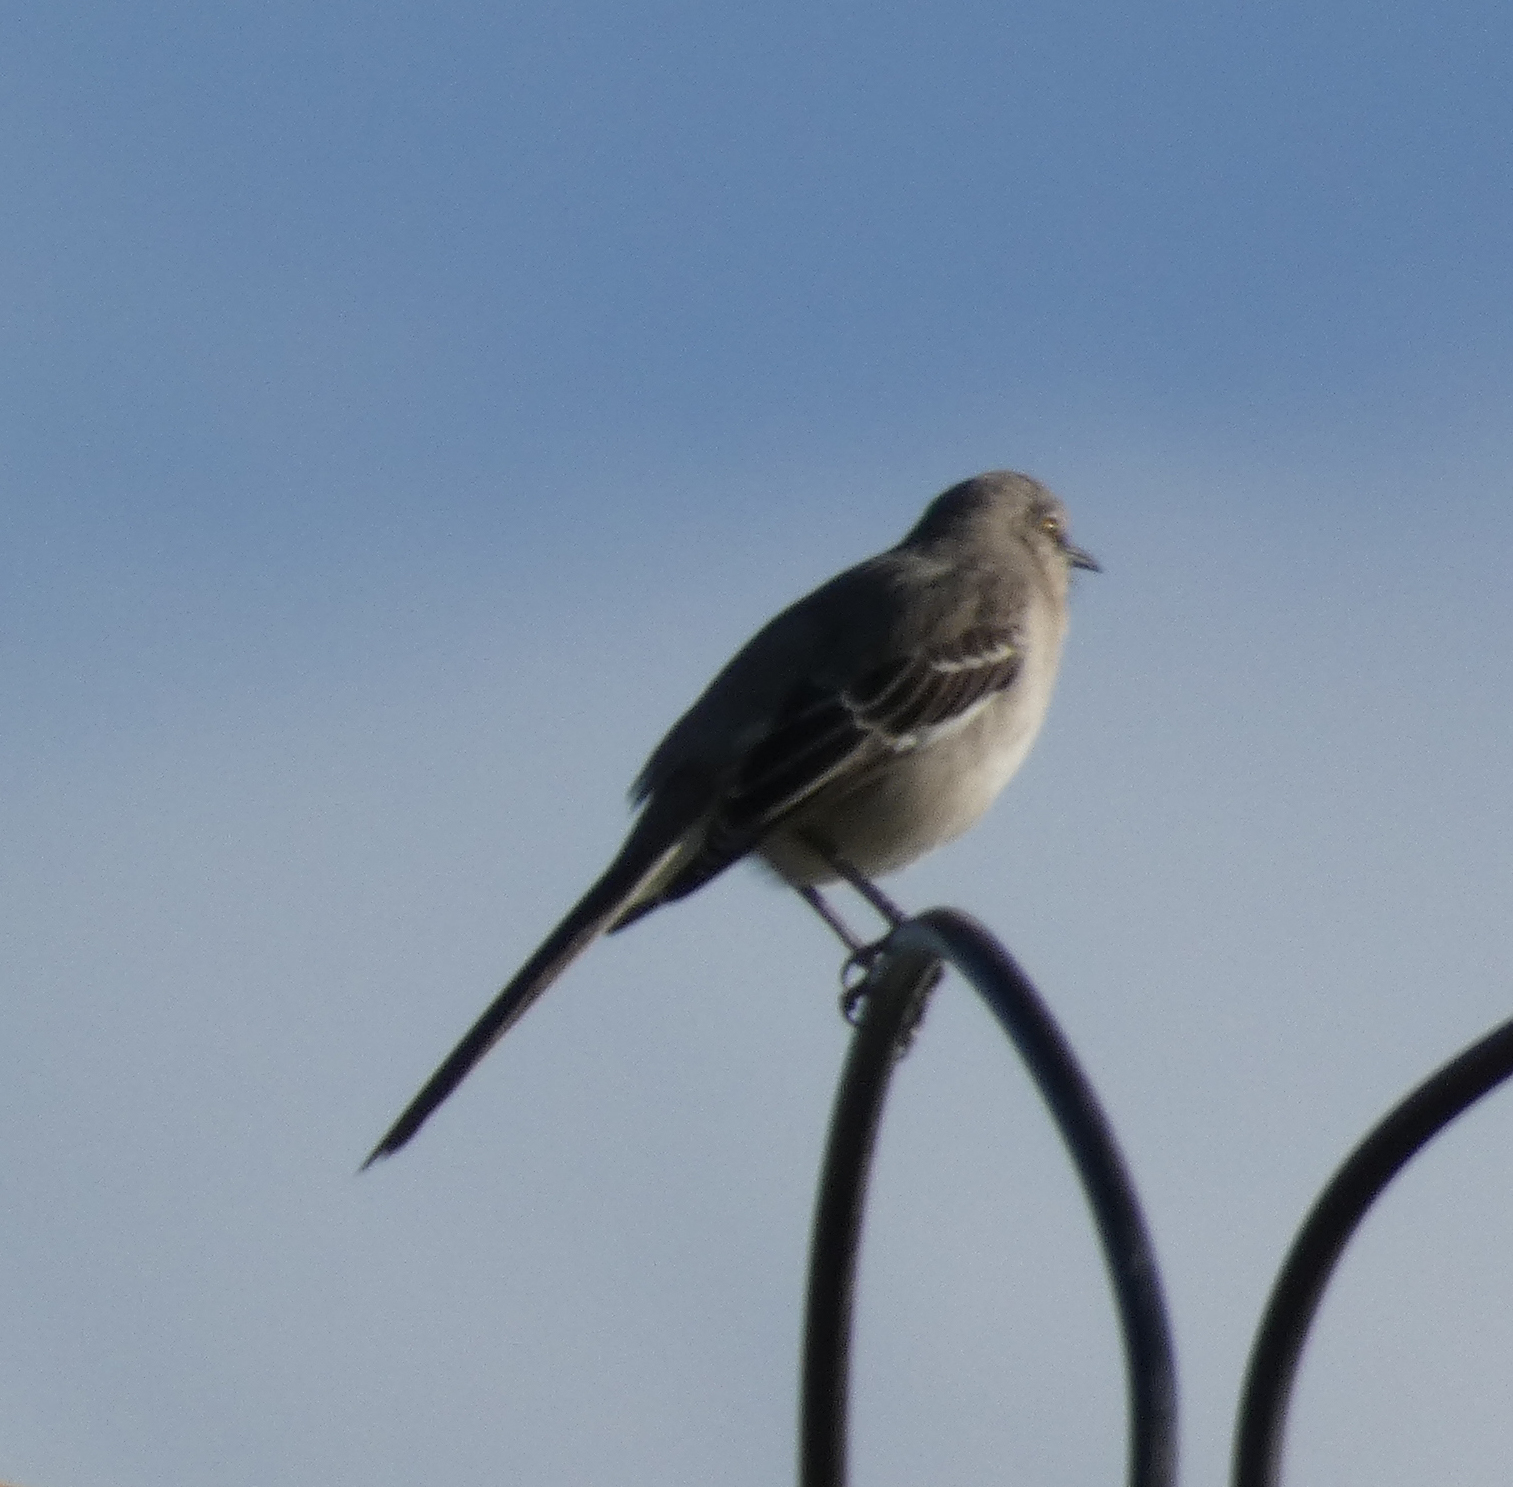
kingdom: Animalia
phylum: Chordata
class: Aves
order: Passeriformes
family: Mimidae
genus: Mimus
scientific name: Mimus polyglottos
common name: Northern mockingbird
